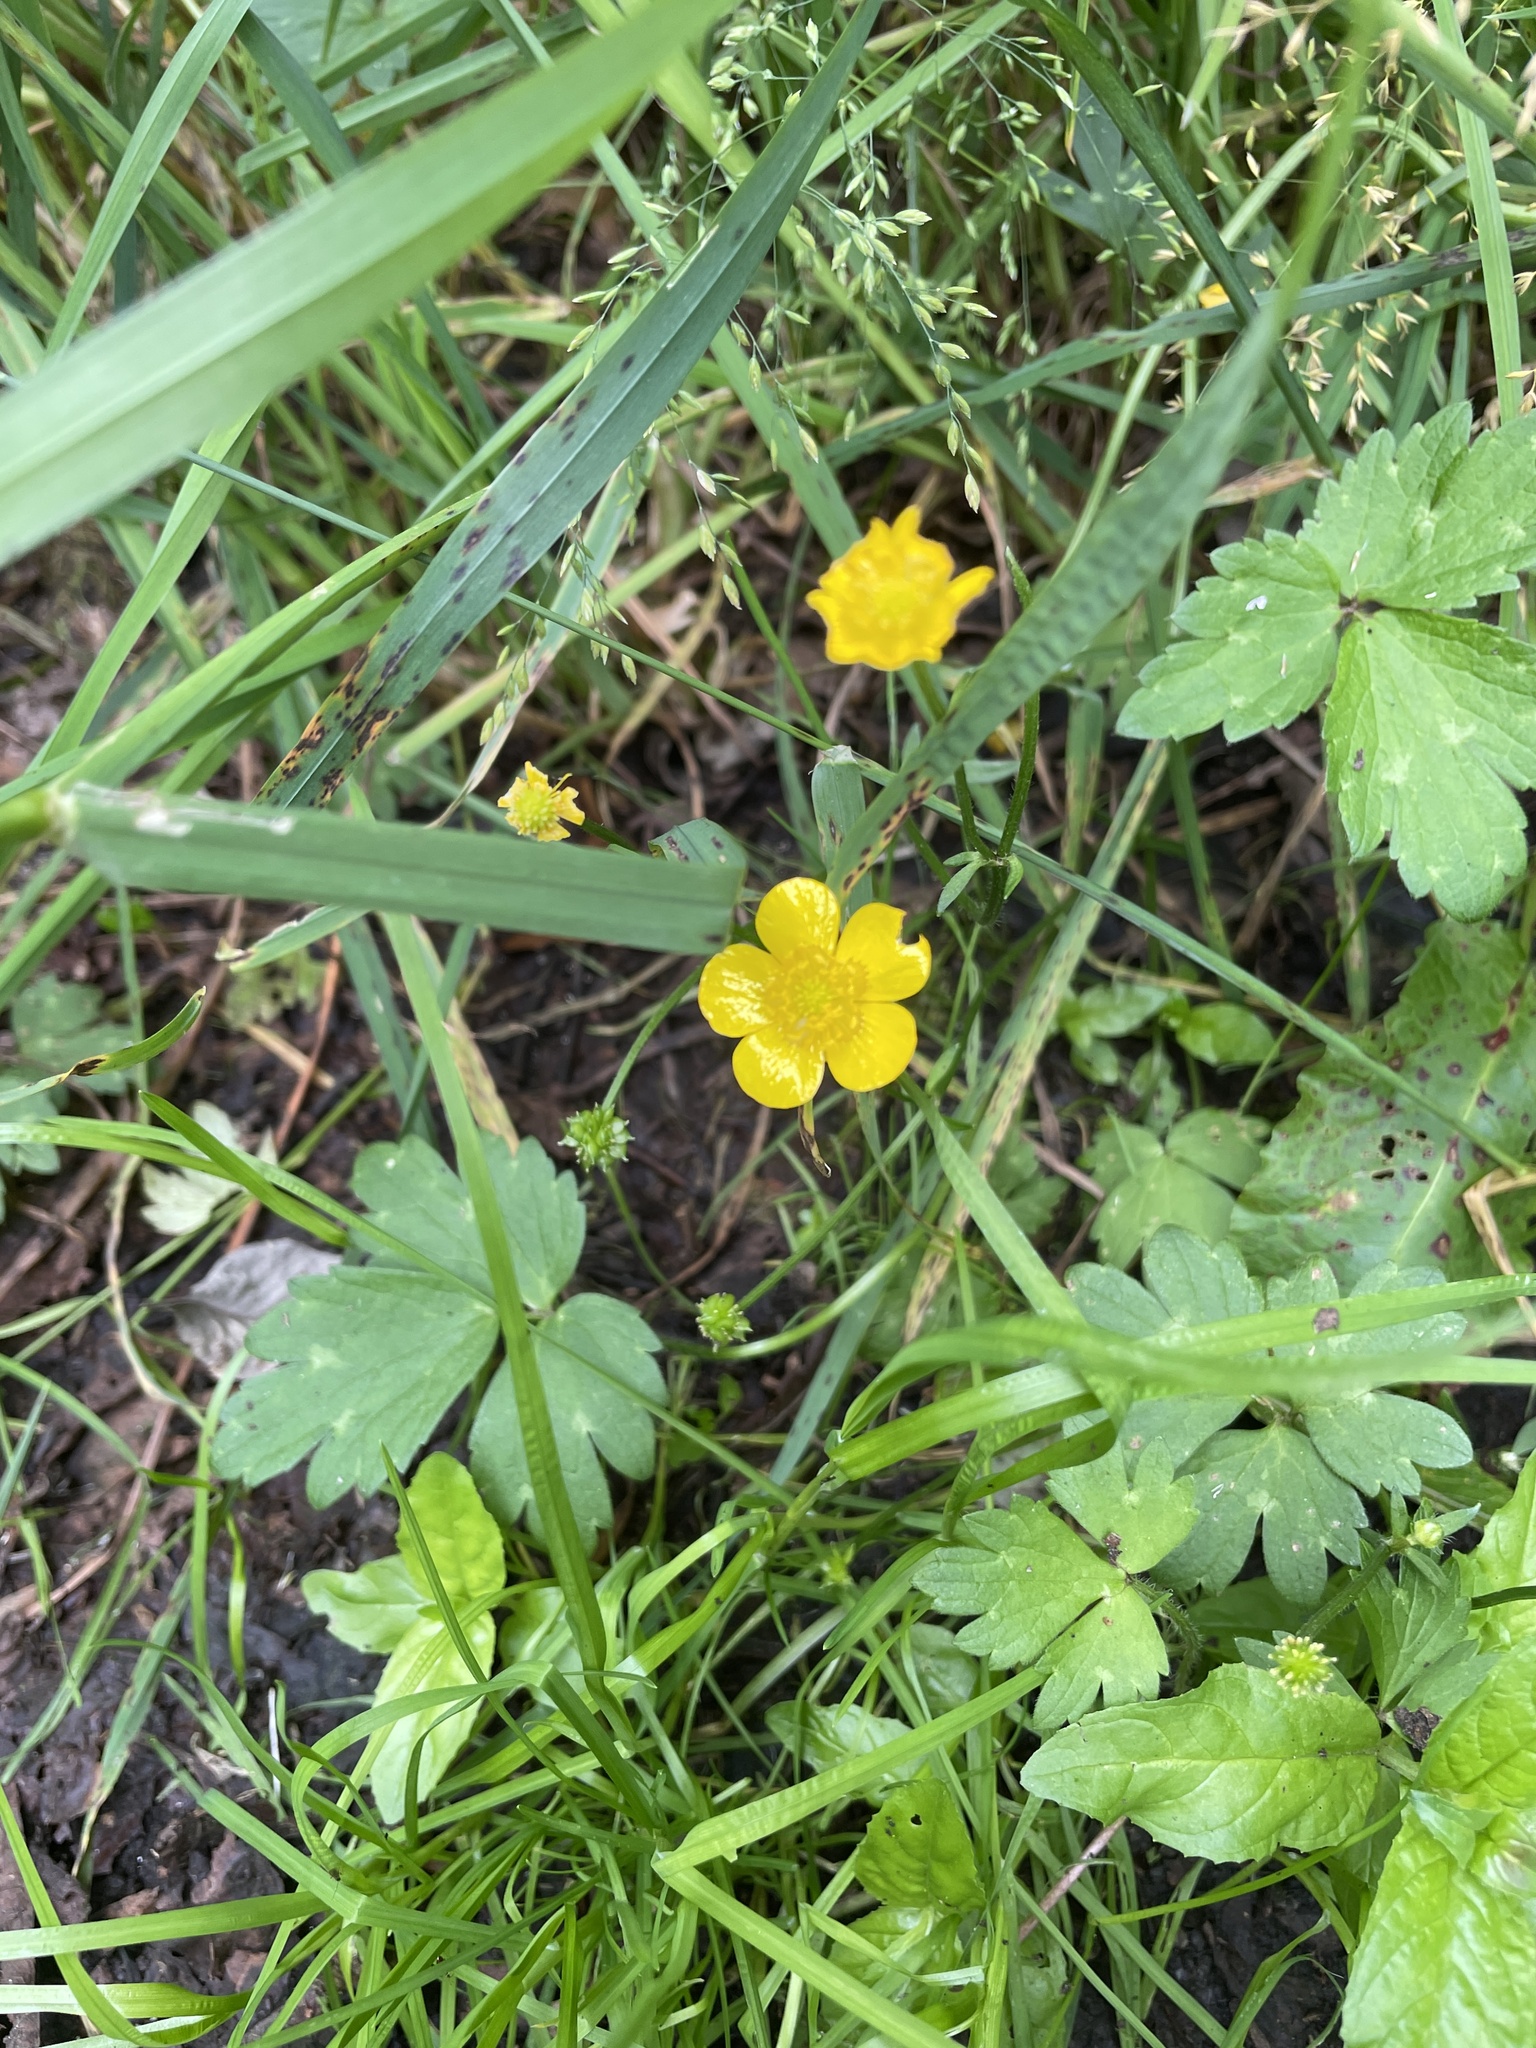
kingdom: Plantae
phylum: Tracheophyta
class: Magnoliopsida
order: Ranunculales
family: Ranunculaceae
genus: Ranunculus
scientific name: Ranunculus repens
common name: Creeping buttercup
